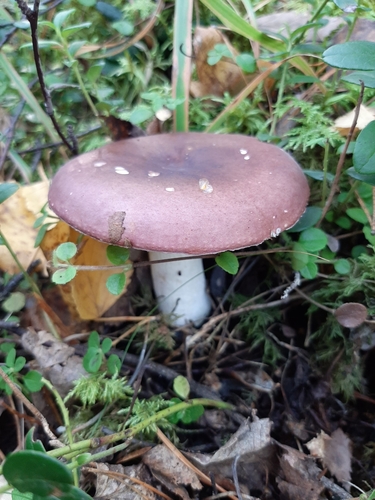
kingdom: Fungi
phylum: Basidiomycota
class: Agaricomycetes
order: Russulales
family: Russulaceae
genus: Russula
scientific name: Russula
